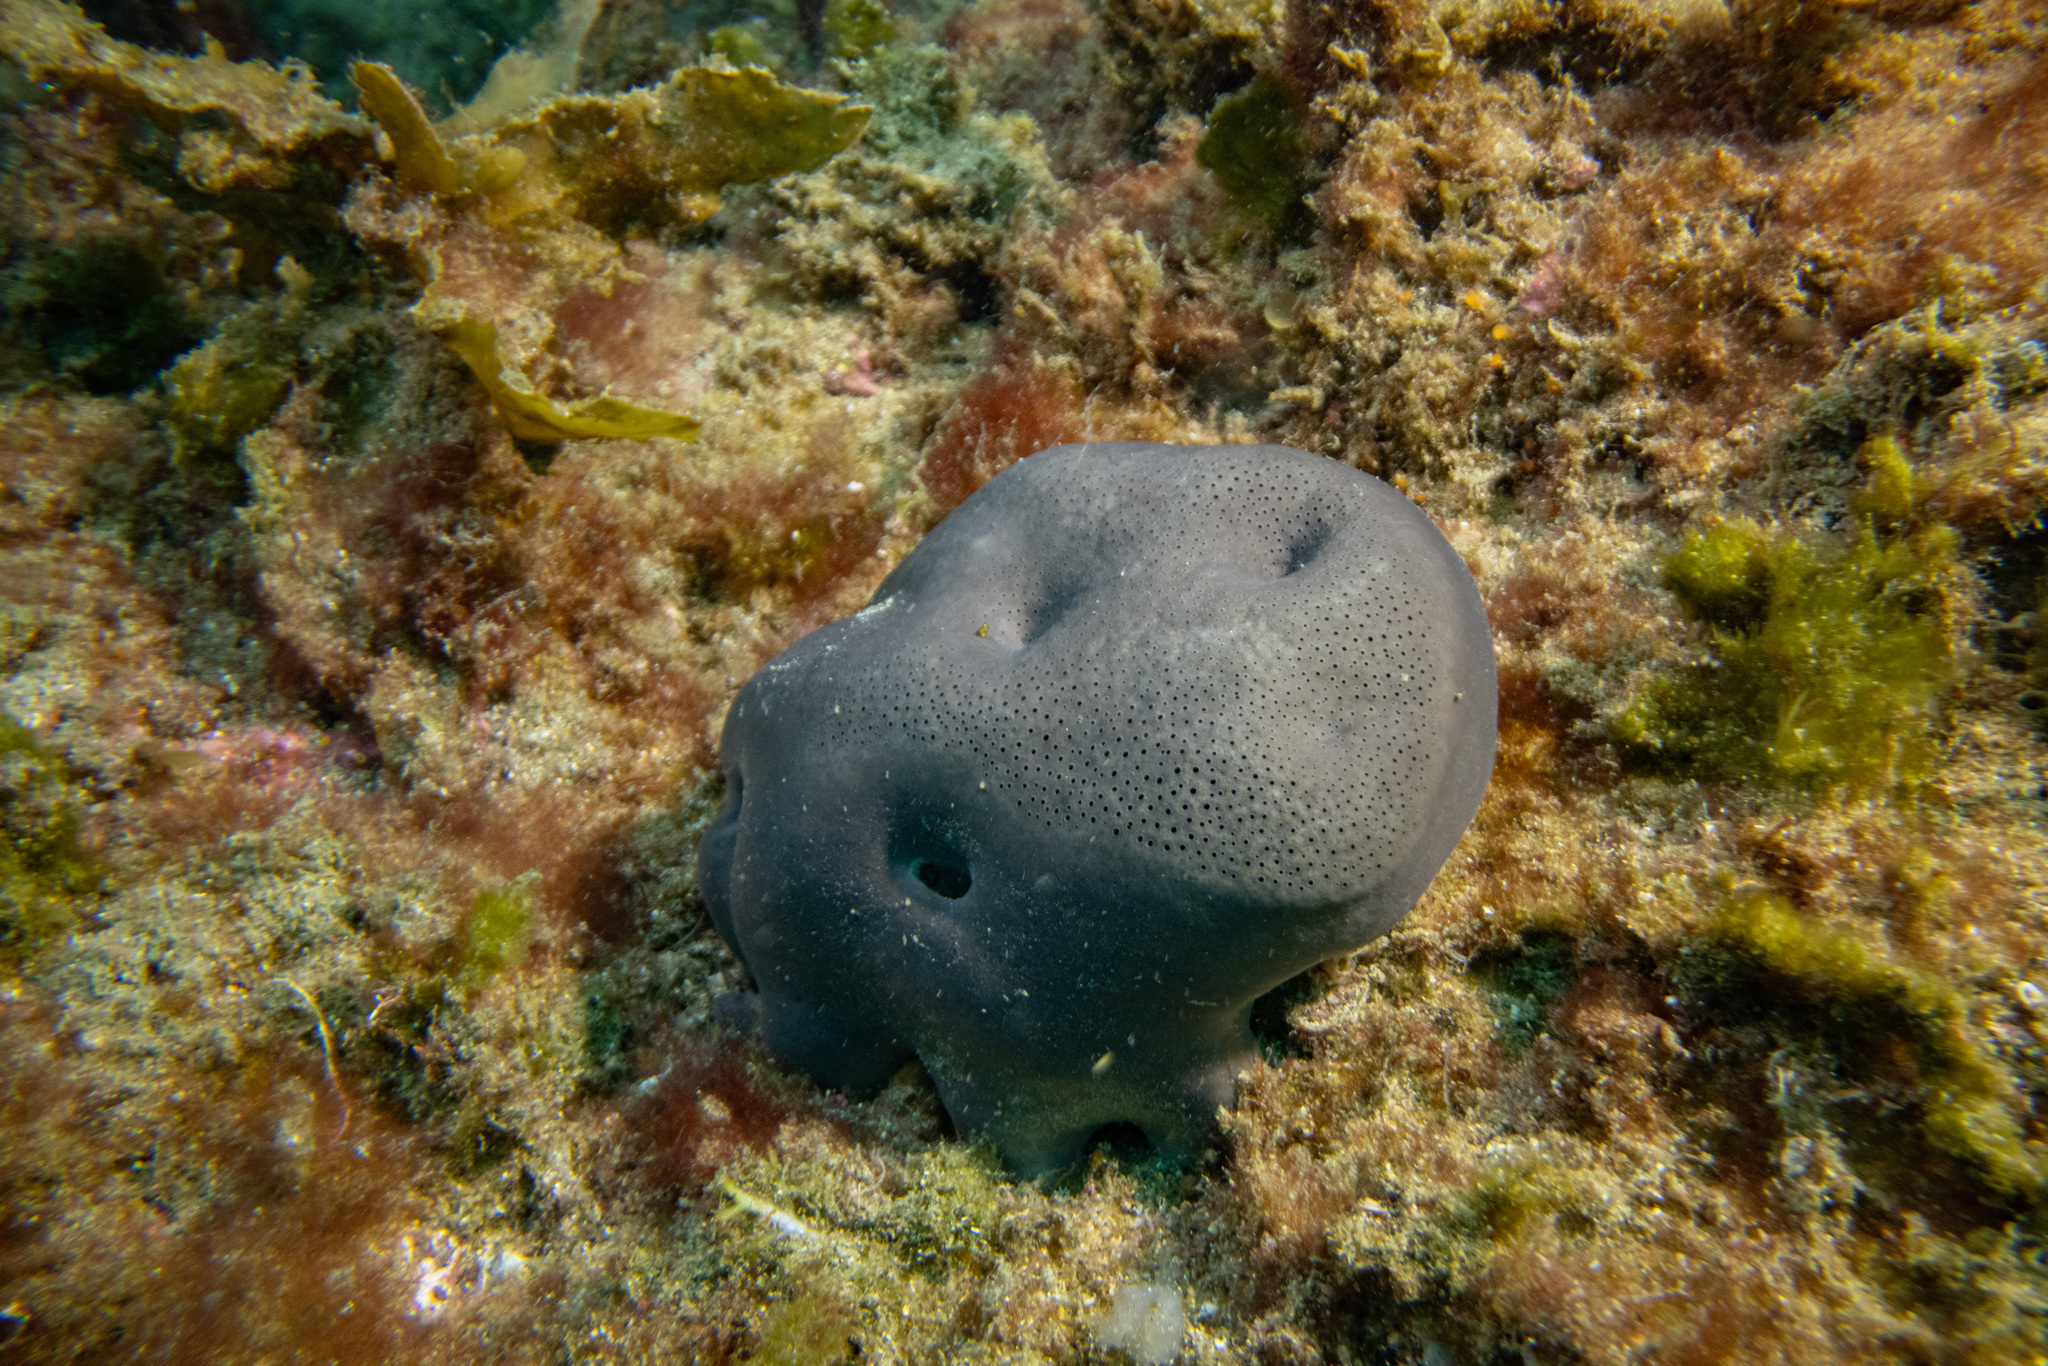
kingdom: Animalia
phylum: Porifera
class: Demospongiae
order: Dictyoceratida
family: Irciniidae
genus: Psammocinia
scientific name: Psammocinia hawere
